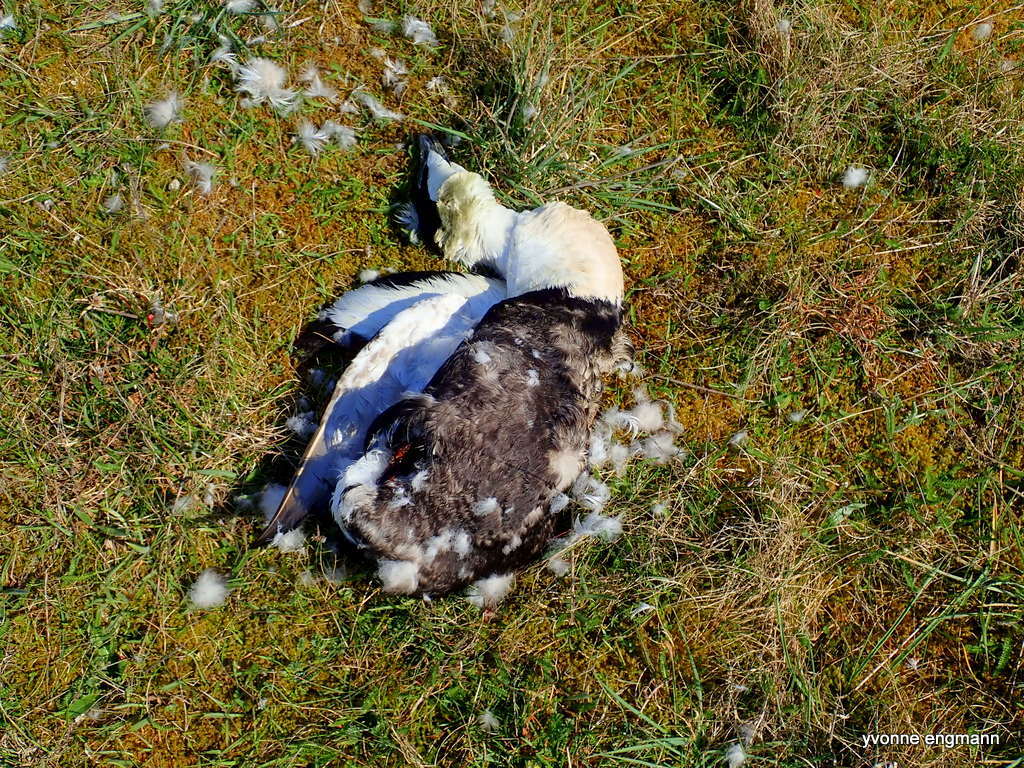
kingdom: Animalia
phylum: Chordata
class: Aves
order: Anseriformes
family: Anatidae
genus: Somateria
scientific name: Somateria mollissima
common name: Common eider
